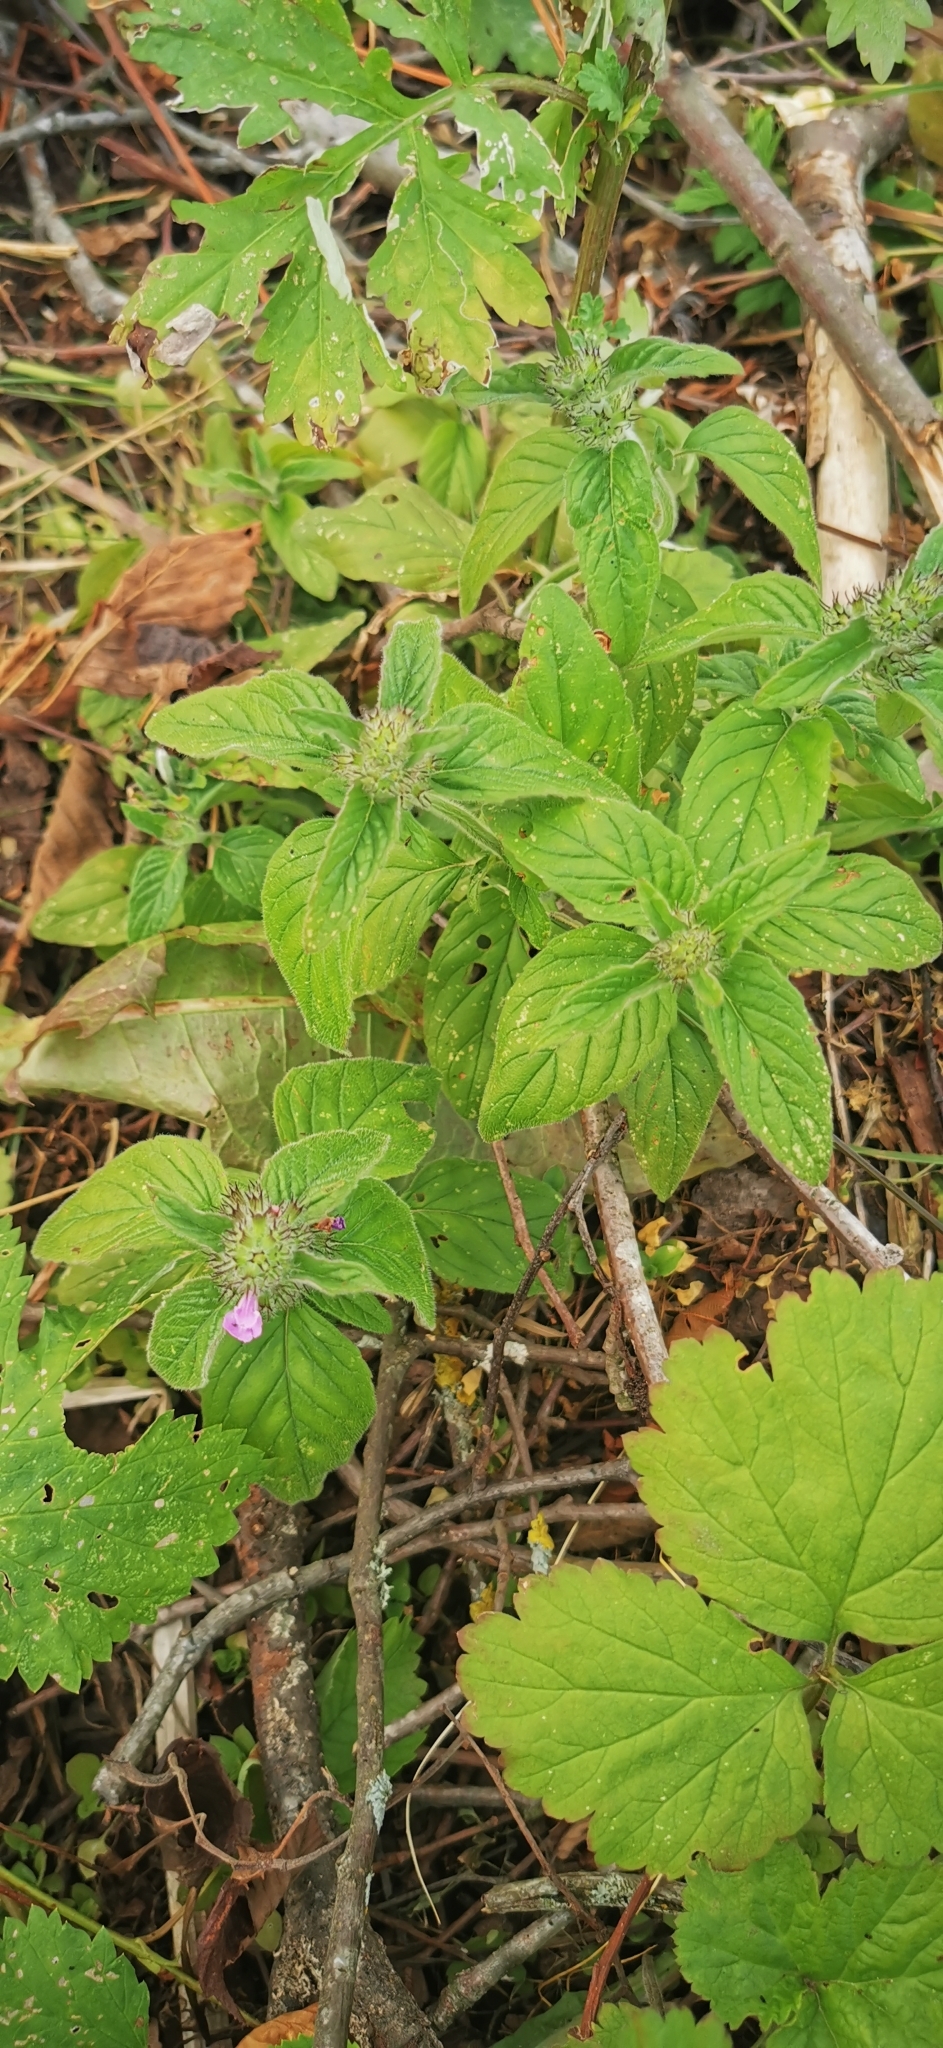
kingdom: Plantae
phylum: Tracheophyta
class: Magnoliopsida
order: Lamiales
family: Lamiaceae
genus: Clinopodium
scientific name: Clinopodium vulgare
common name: Wild basil
